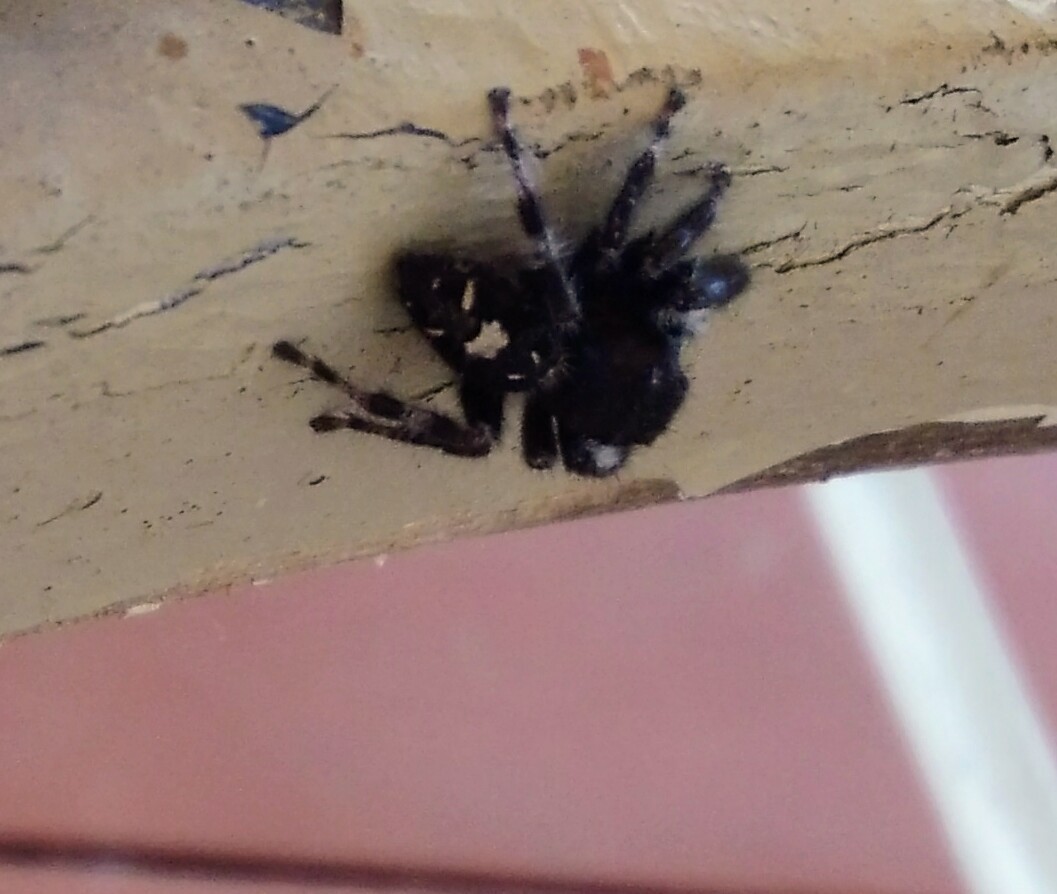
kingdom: Animalia
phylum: Arthropoda
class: Arachnida
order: Araneae
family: Salticidae
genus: Phidippus
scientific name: Phidippus audax
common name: Bold jumper
